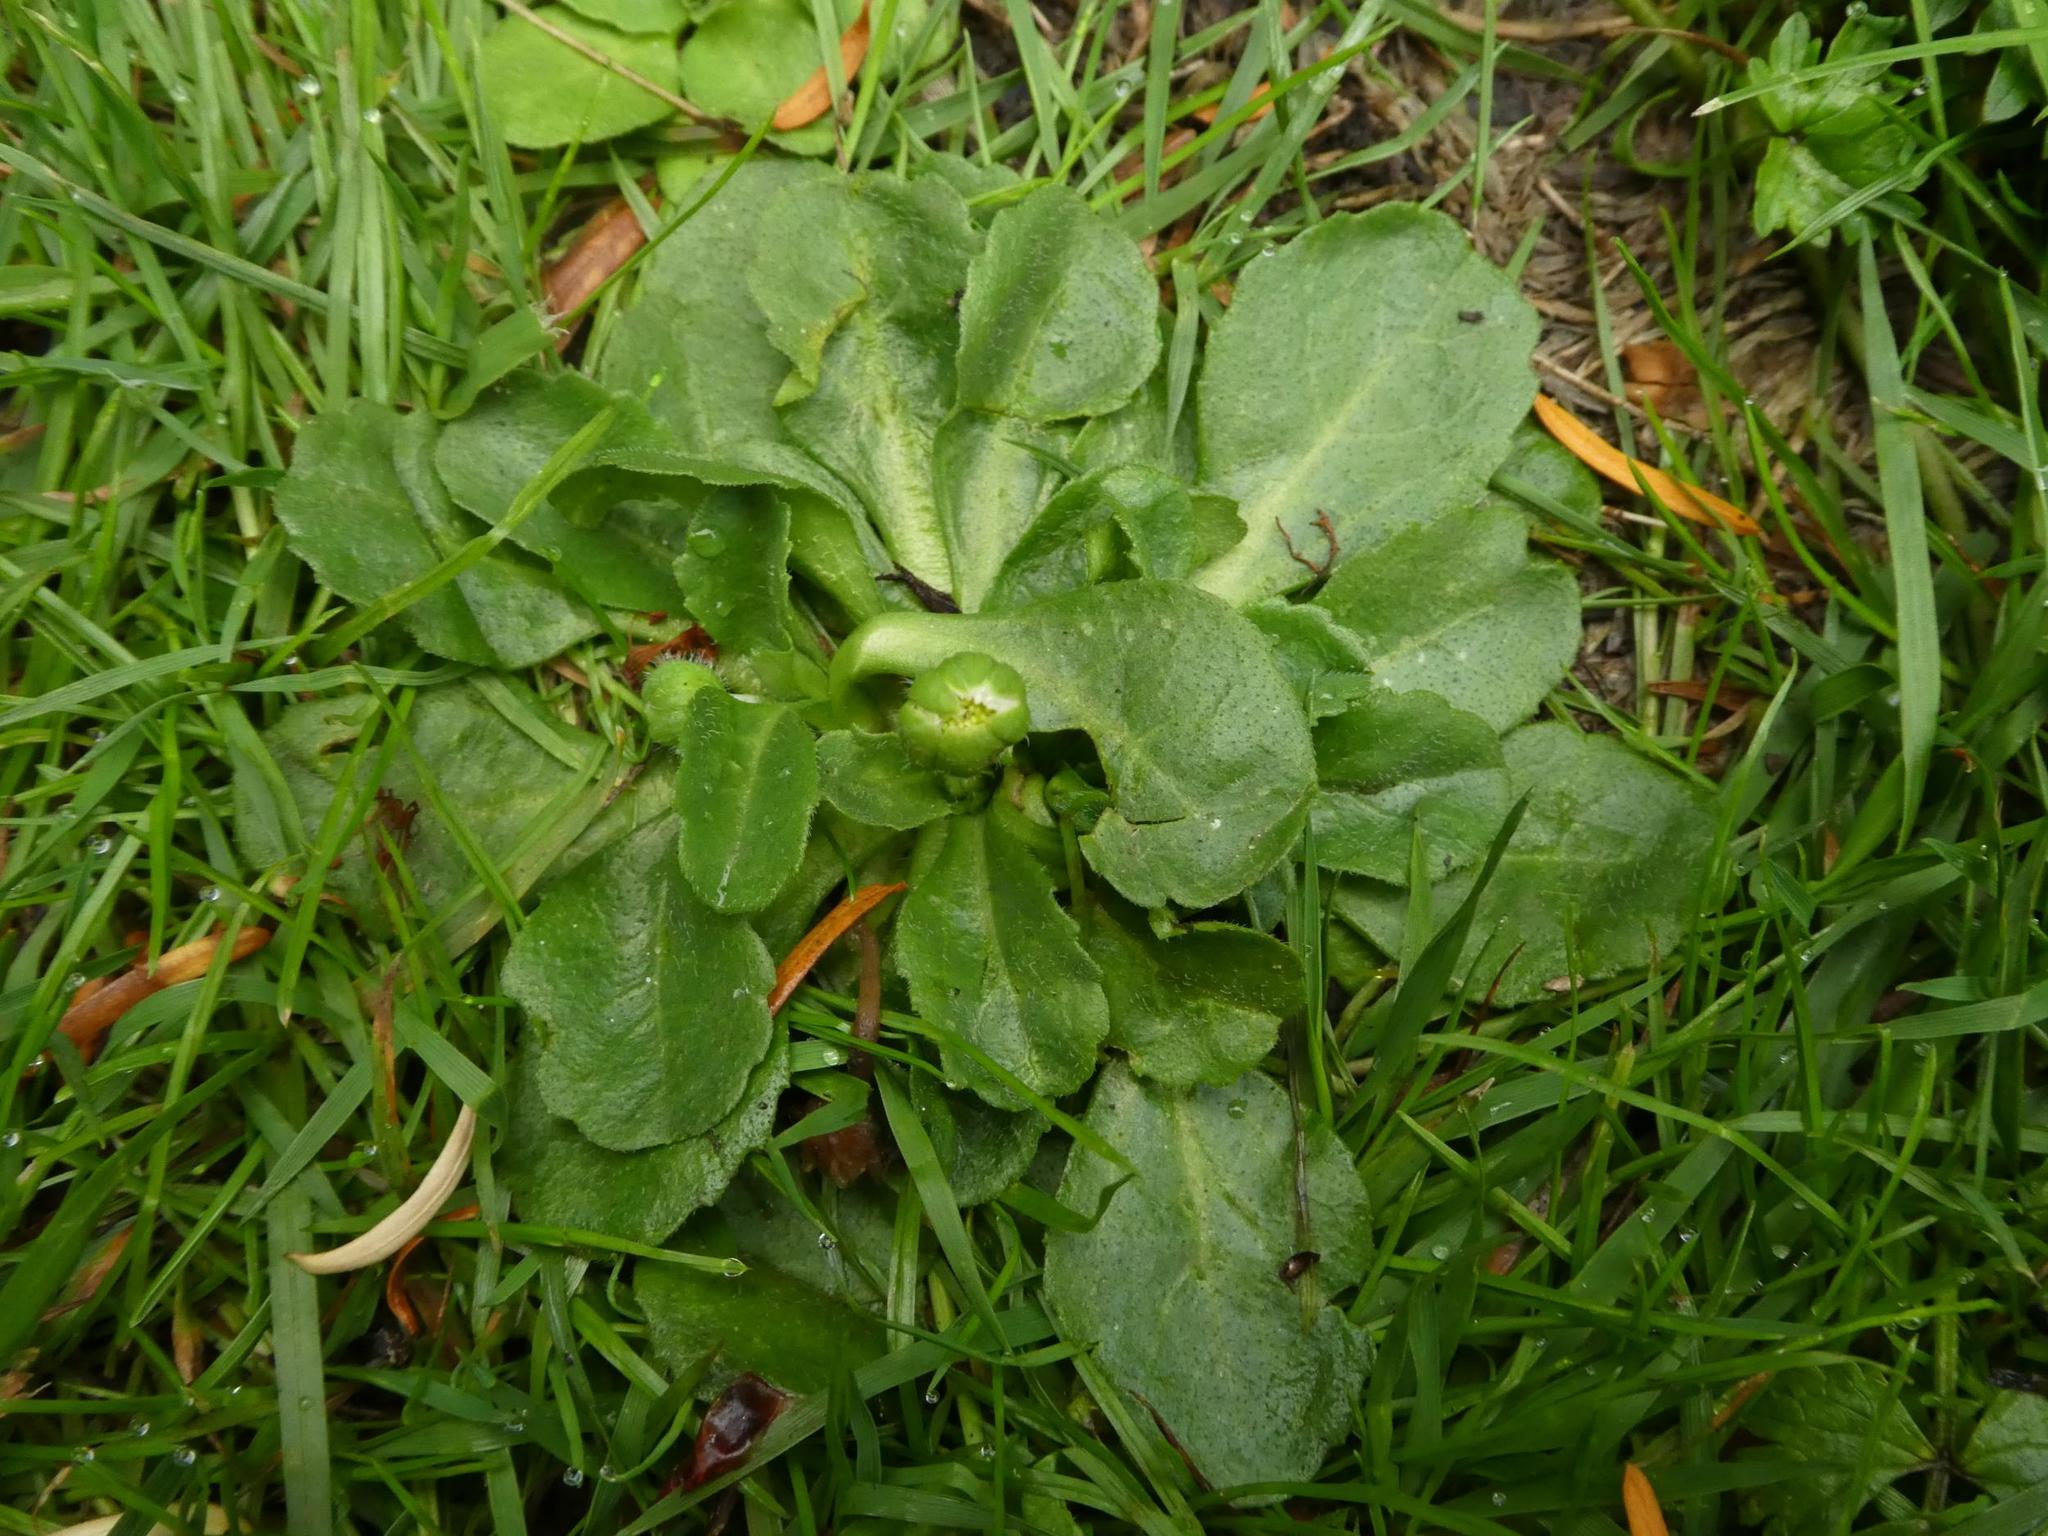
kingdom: Plantae
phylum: Tracheophyta
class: Magnoliopsida
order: Asterales
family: Asteraceae
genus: Bellis
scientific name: Bellis perennis
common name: Lawndaisy
